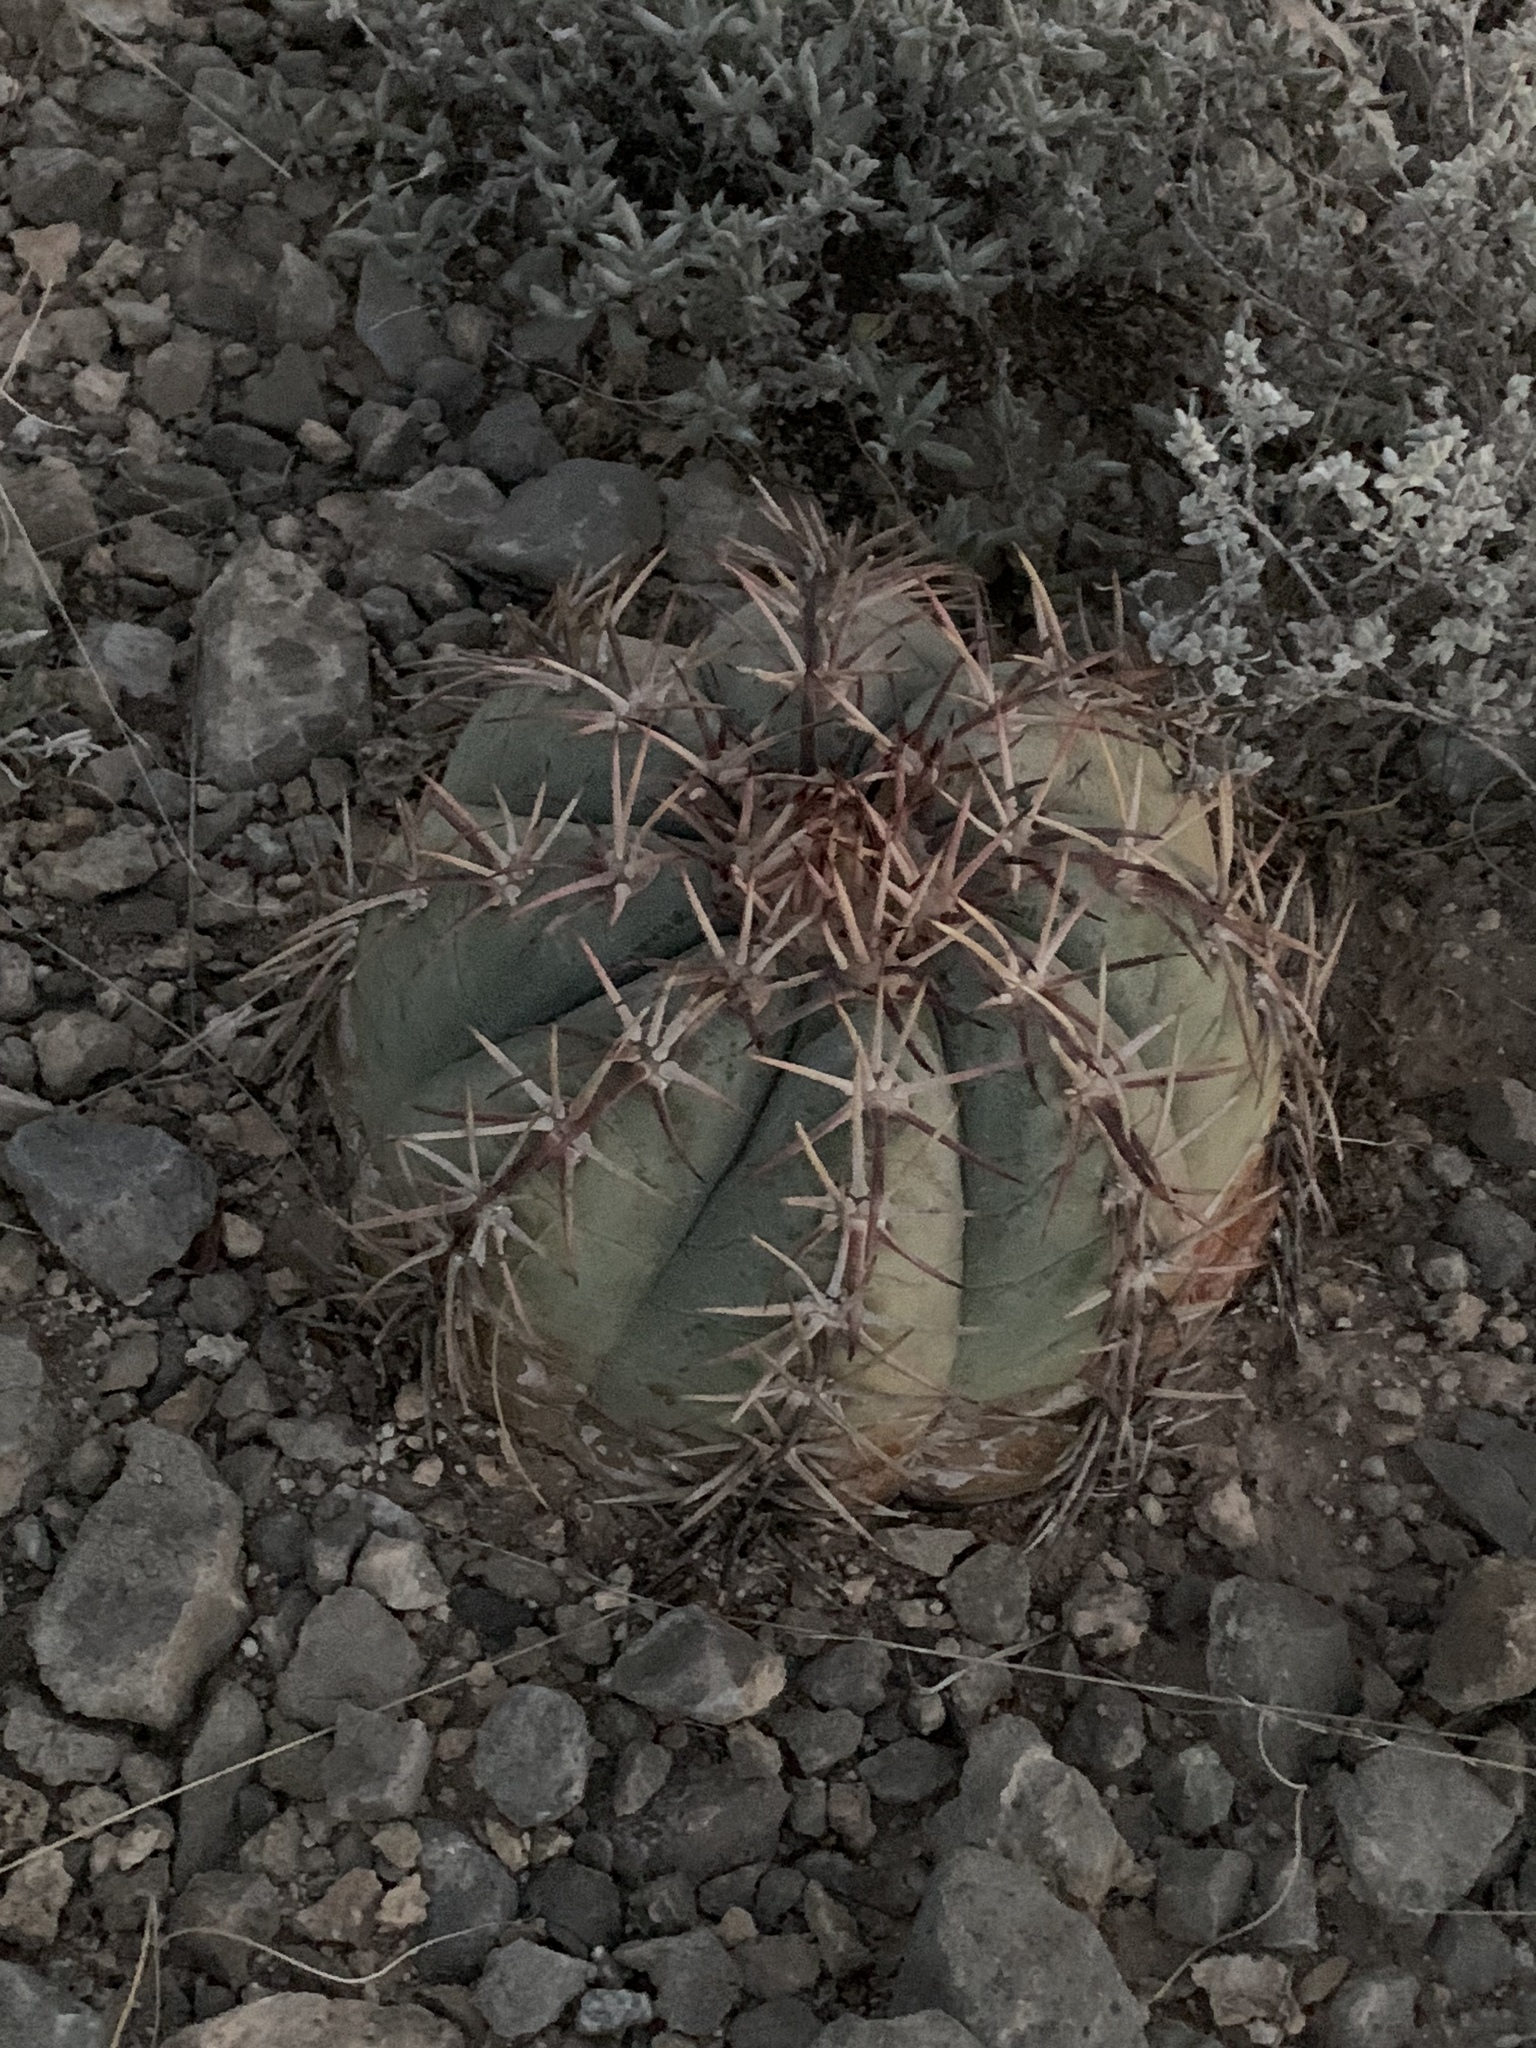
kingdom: Plantae
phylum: Tracheophyta
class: Magnoliopsida
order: Caryophyllales
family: Cactaceae
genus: Echinocactus
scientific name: Echinocactus horizonthalonius
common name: Devilshead
